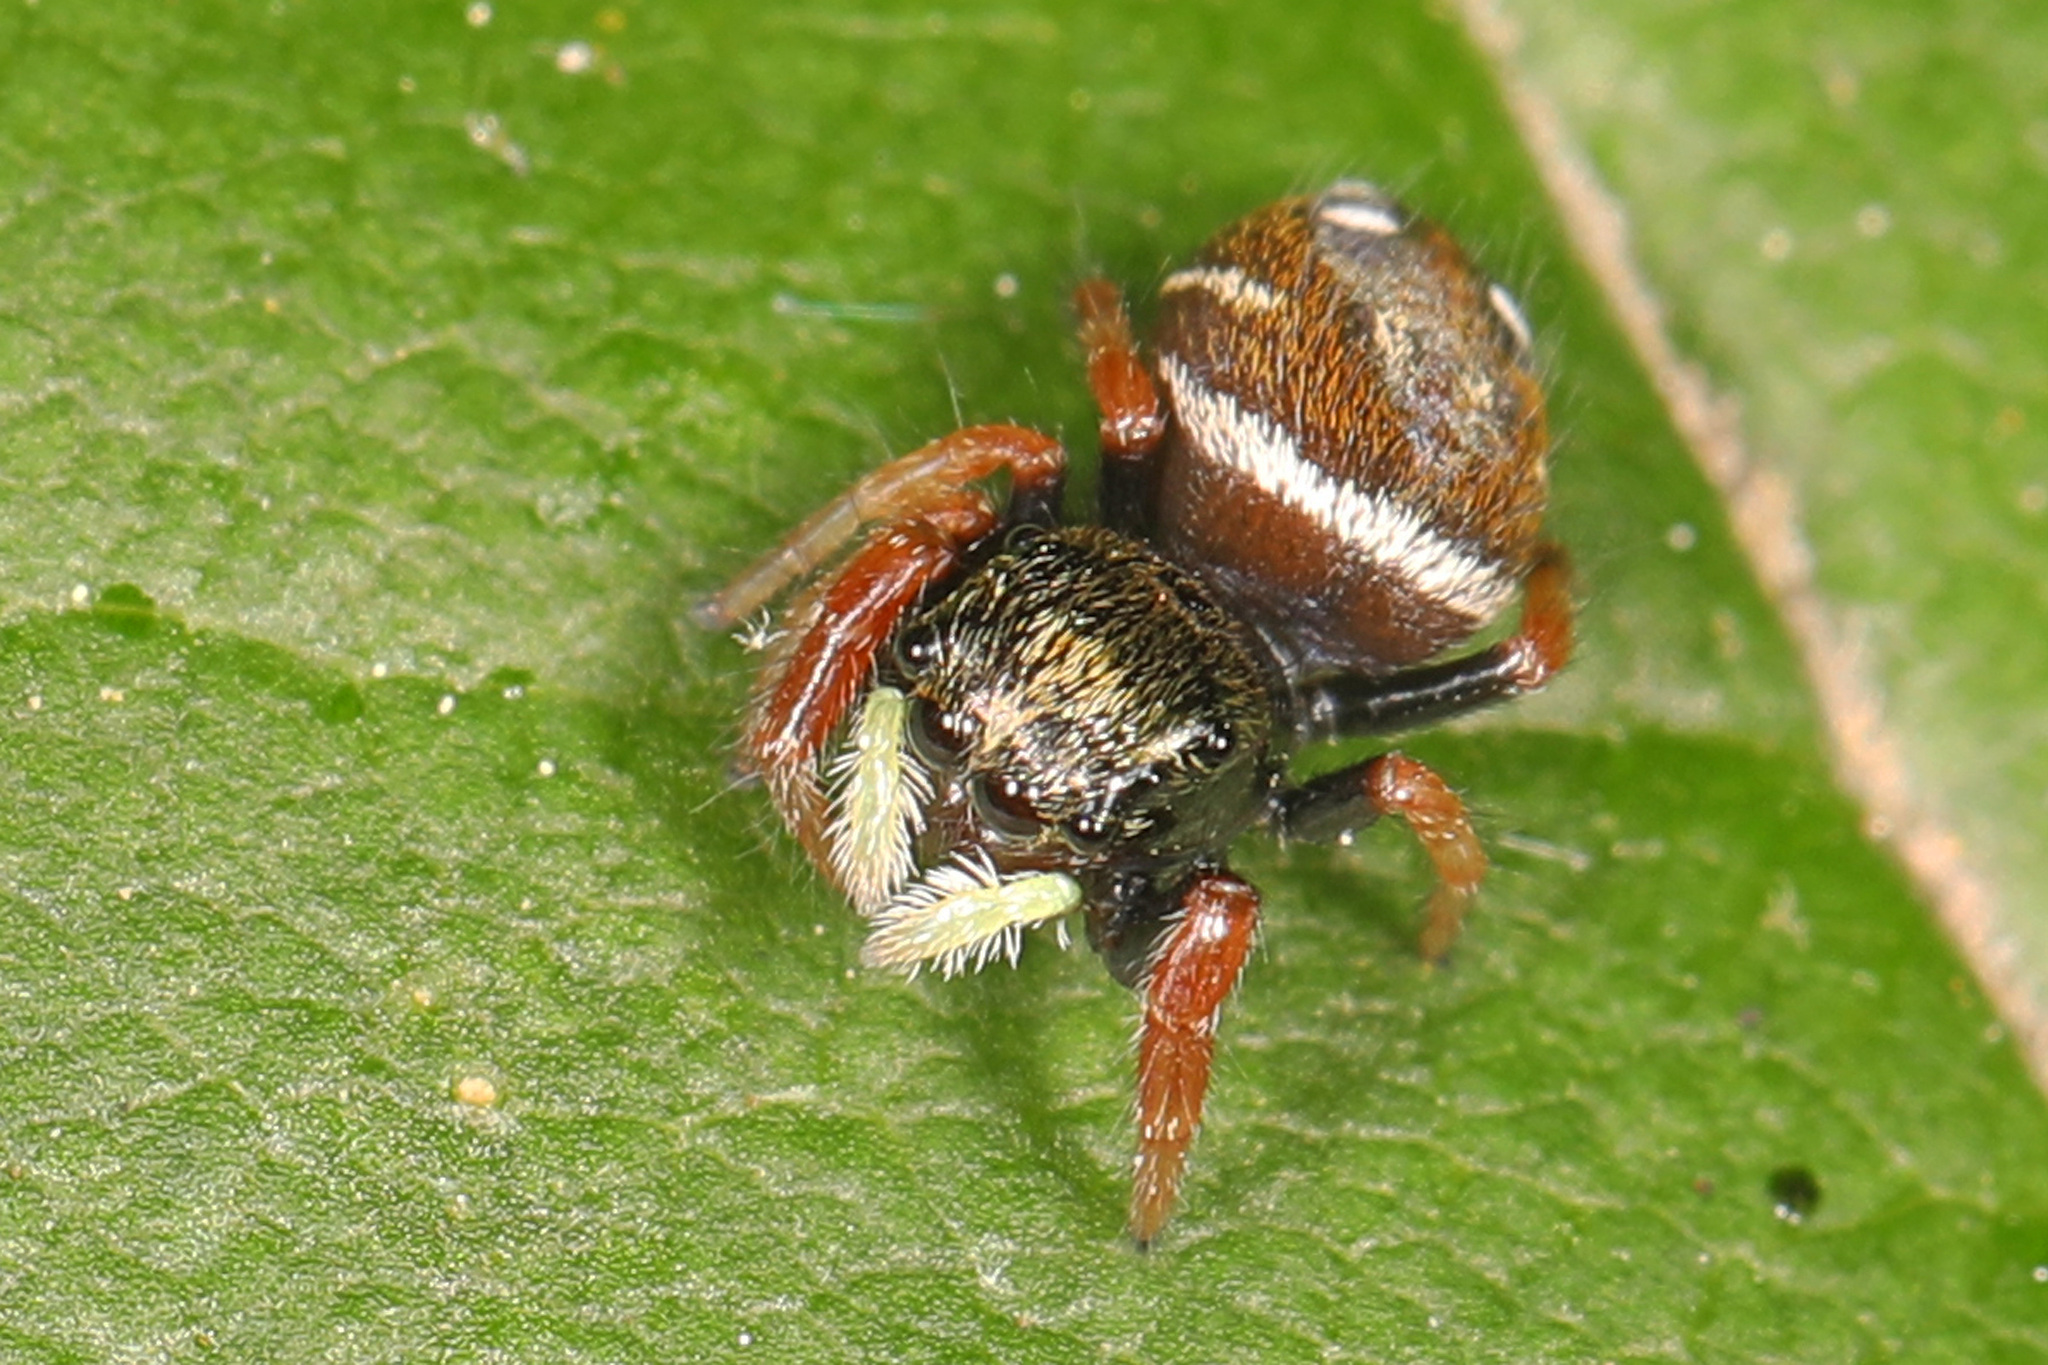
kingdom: Animalia
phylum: Arthropoda
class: Arachnida
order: Araneae
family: Salticidae
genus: Phidippus
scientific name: Phidippus whitmani
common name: Whitman's jumping spider
